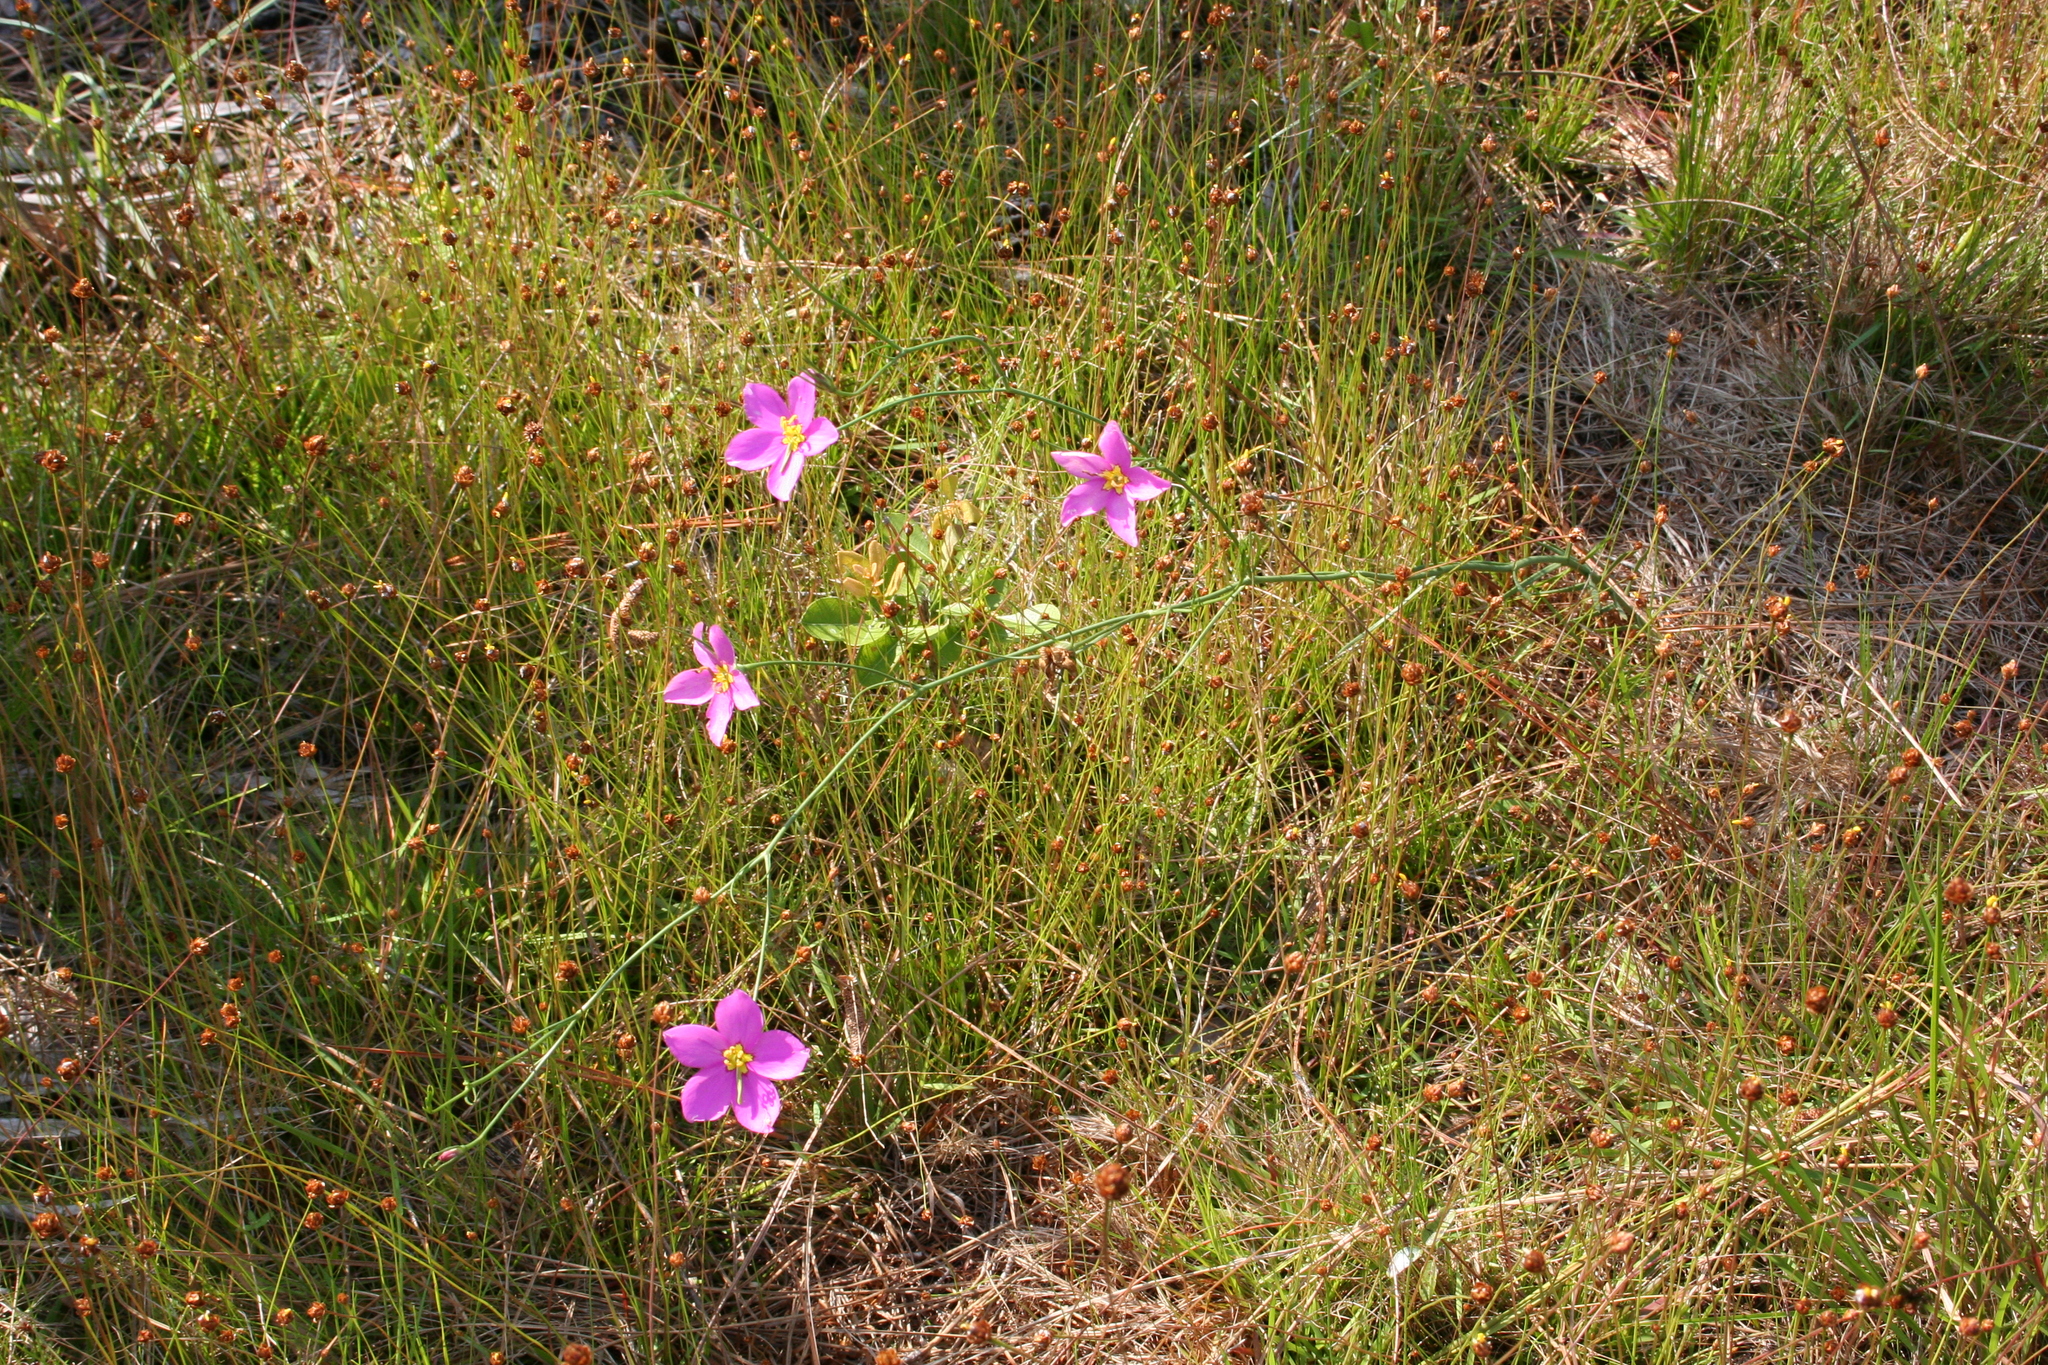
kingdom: Plantae
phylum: Tracheophyta
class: Magnoliopsida
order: Gentianales
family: Gentianaceae
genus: Sabatia
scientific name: Sabatia grandiflora
